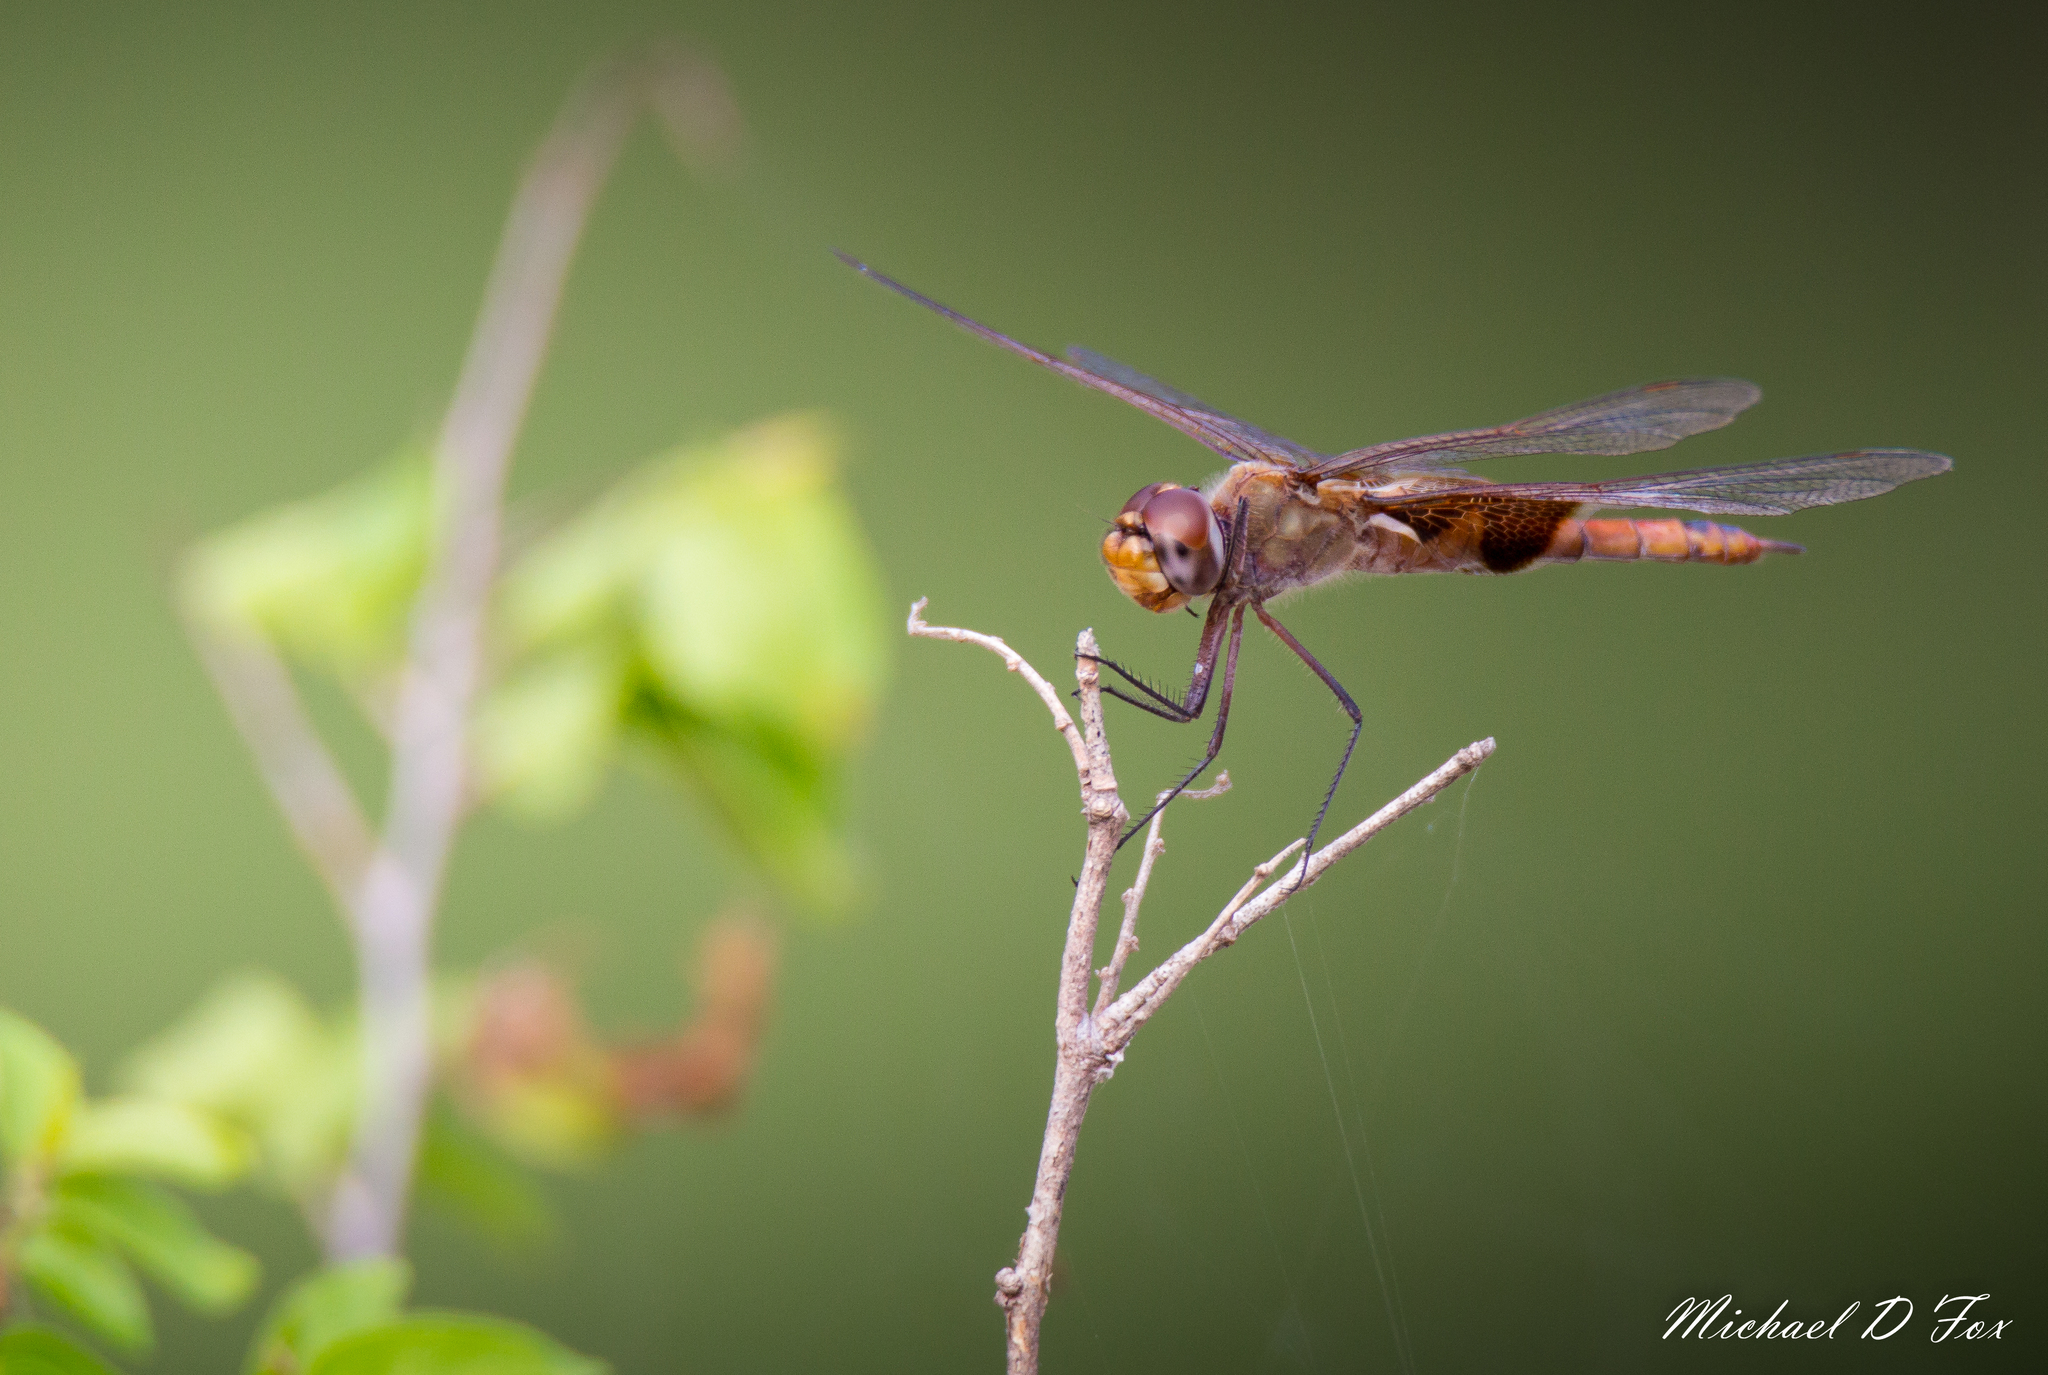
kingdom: Animalia
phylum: Arthropoda
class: Insecta
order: Odonata
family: Libellulidae
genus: Tramea
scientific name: Tramea onusta
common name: Red saddlebags
